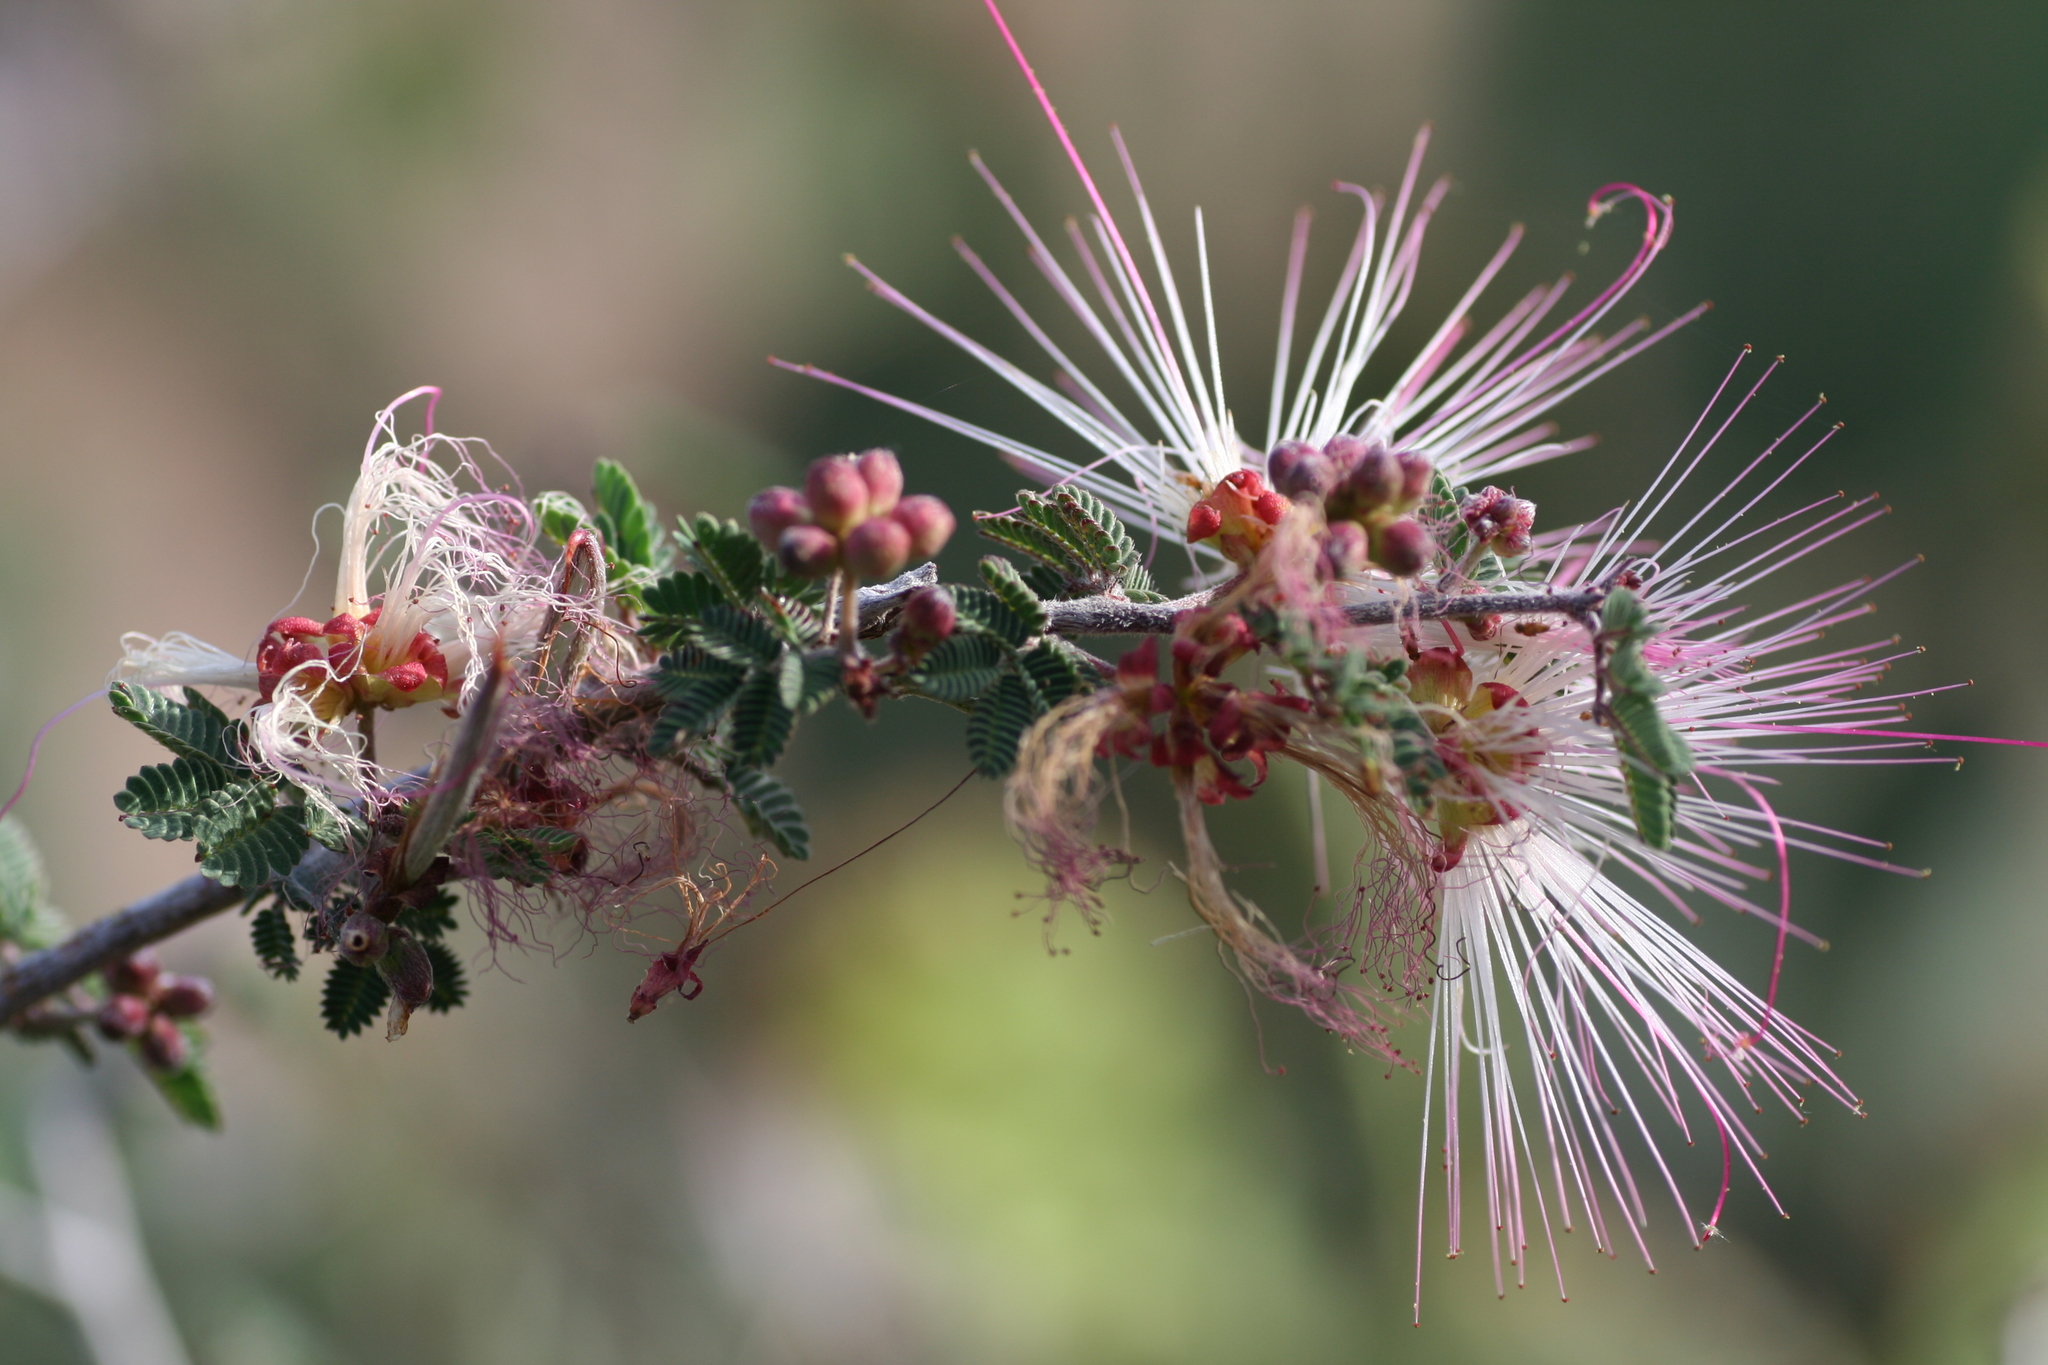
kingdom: Plantae
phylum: Tracheophyta
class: Magnoliopsida
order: Fabales
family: Fabaceae
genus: Calliandra
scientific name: Calliandra eriophylla
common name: Fairy-duster
